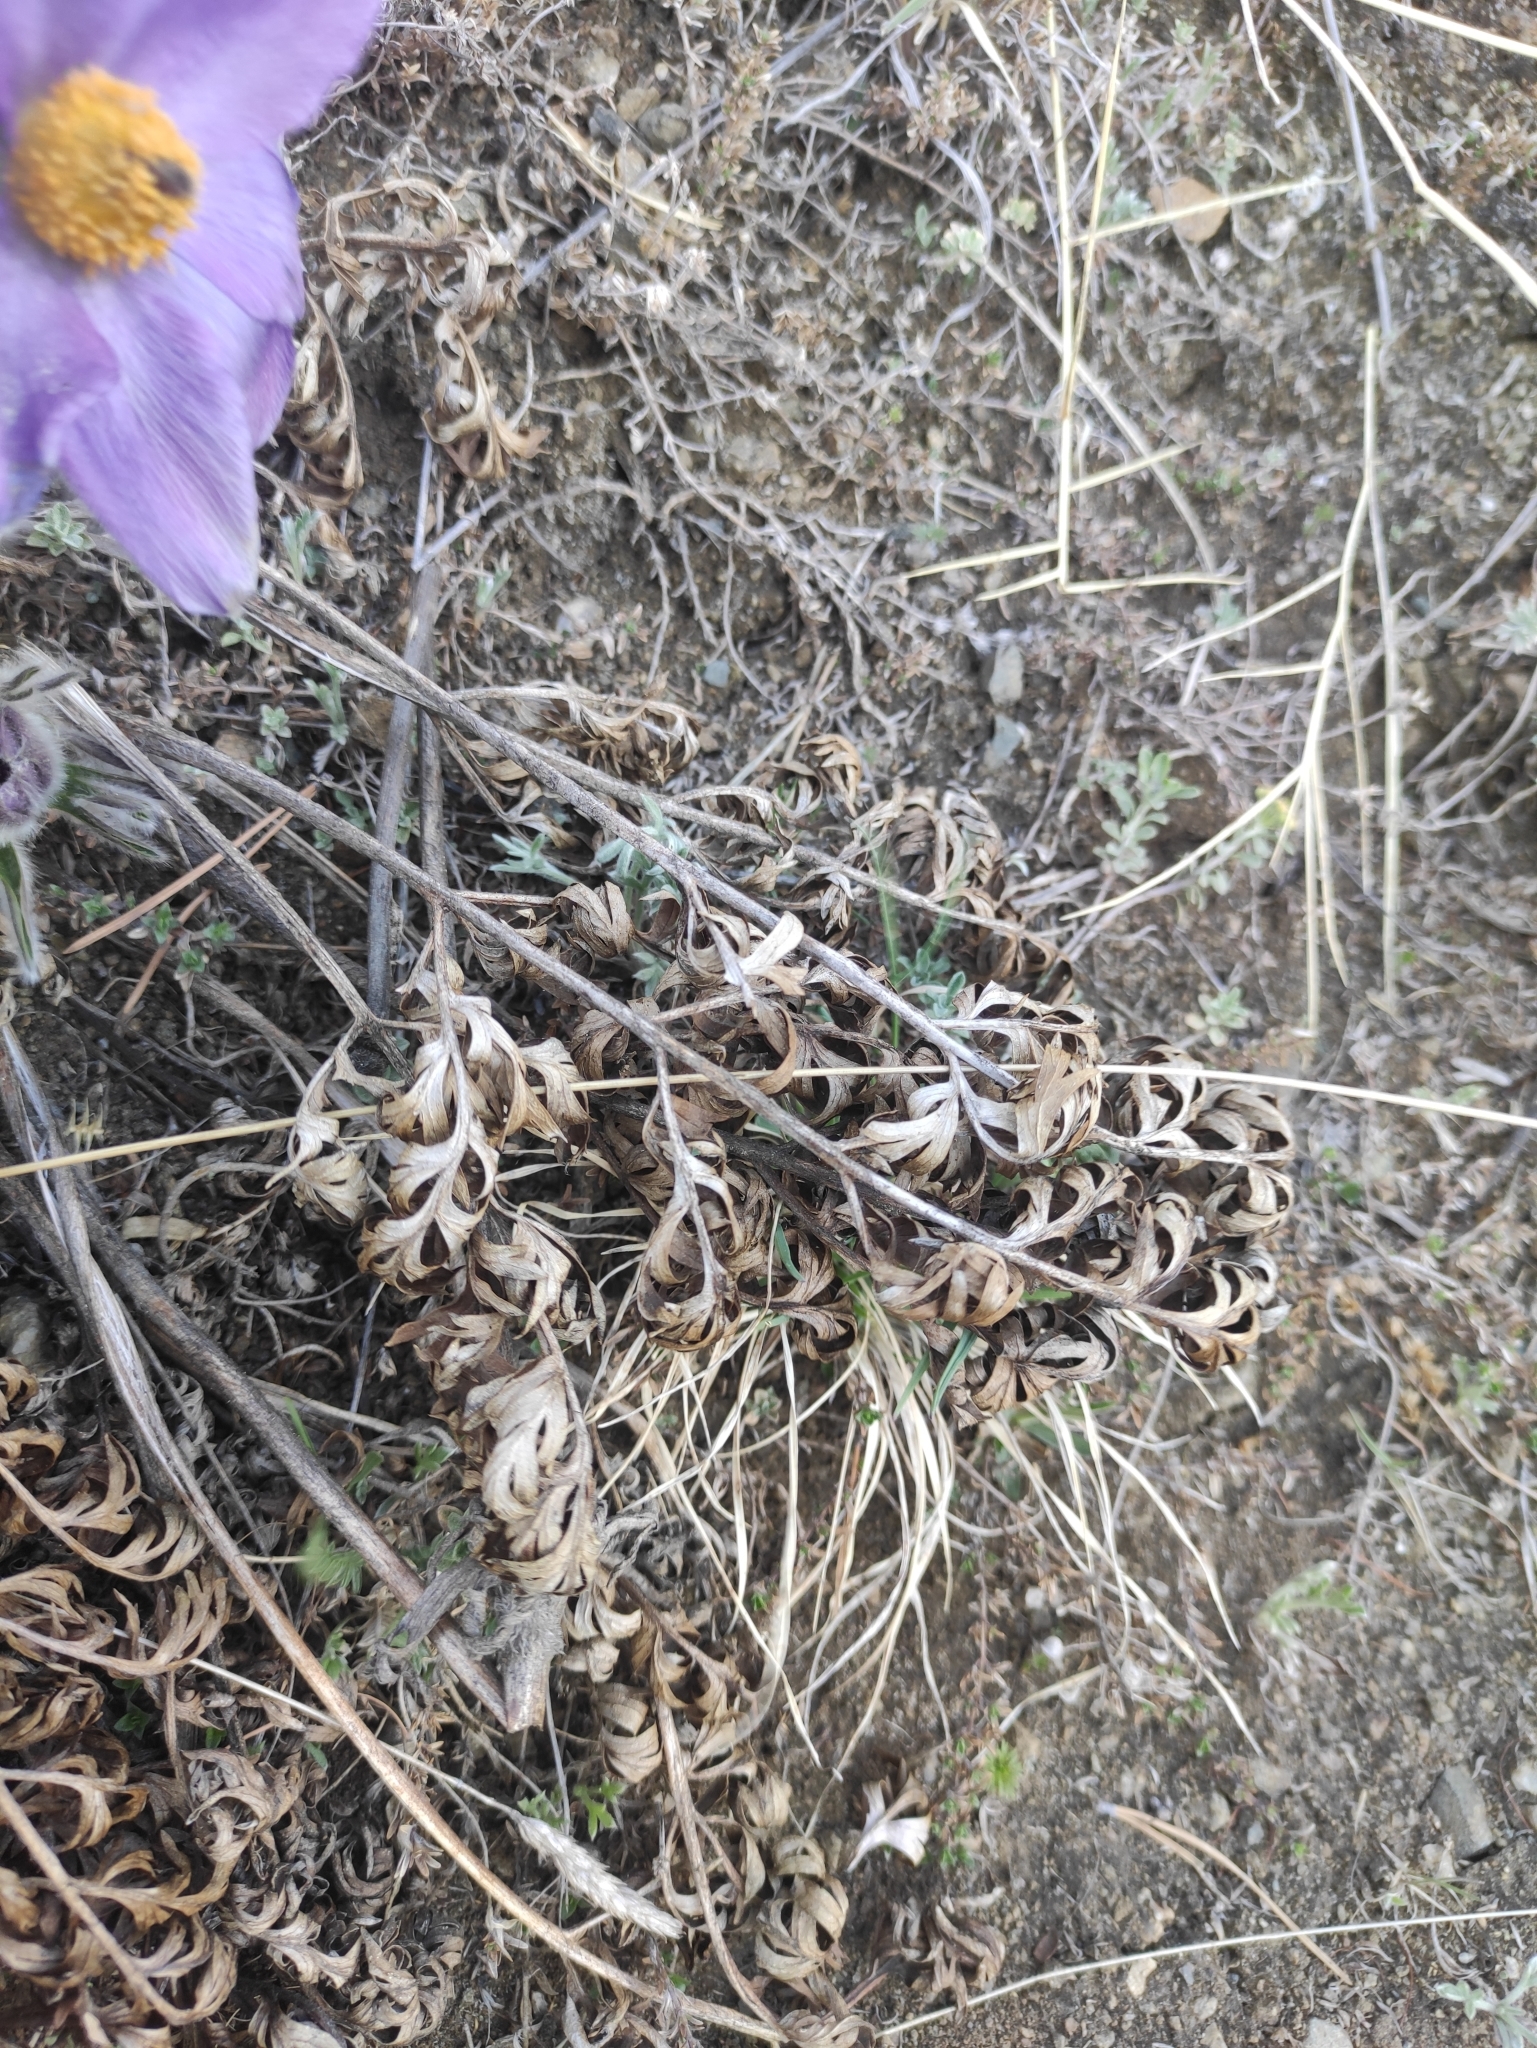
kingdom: Plantae
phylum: Tracheophyta
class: Magnoliopsida
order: Ranunculales
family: Ranunculaceae
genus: Pulsatilla
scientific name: Pulsatilla turczaninovii
